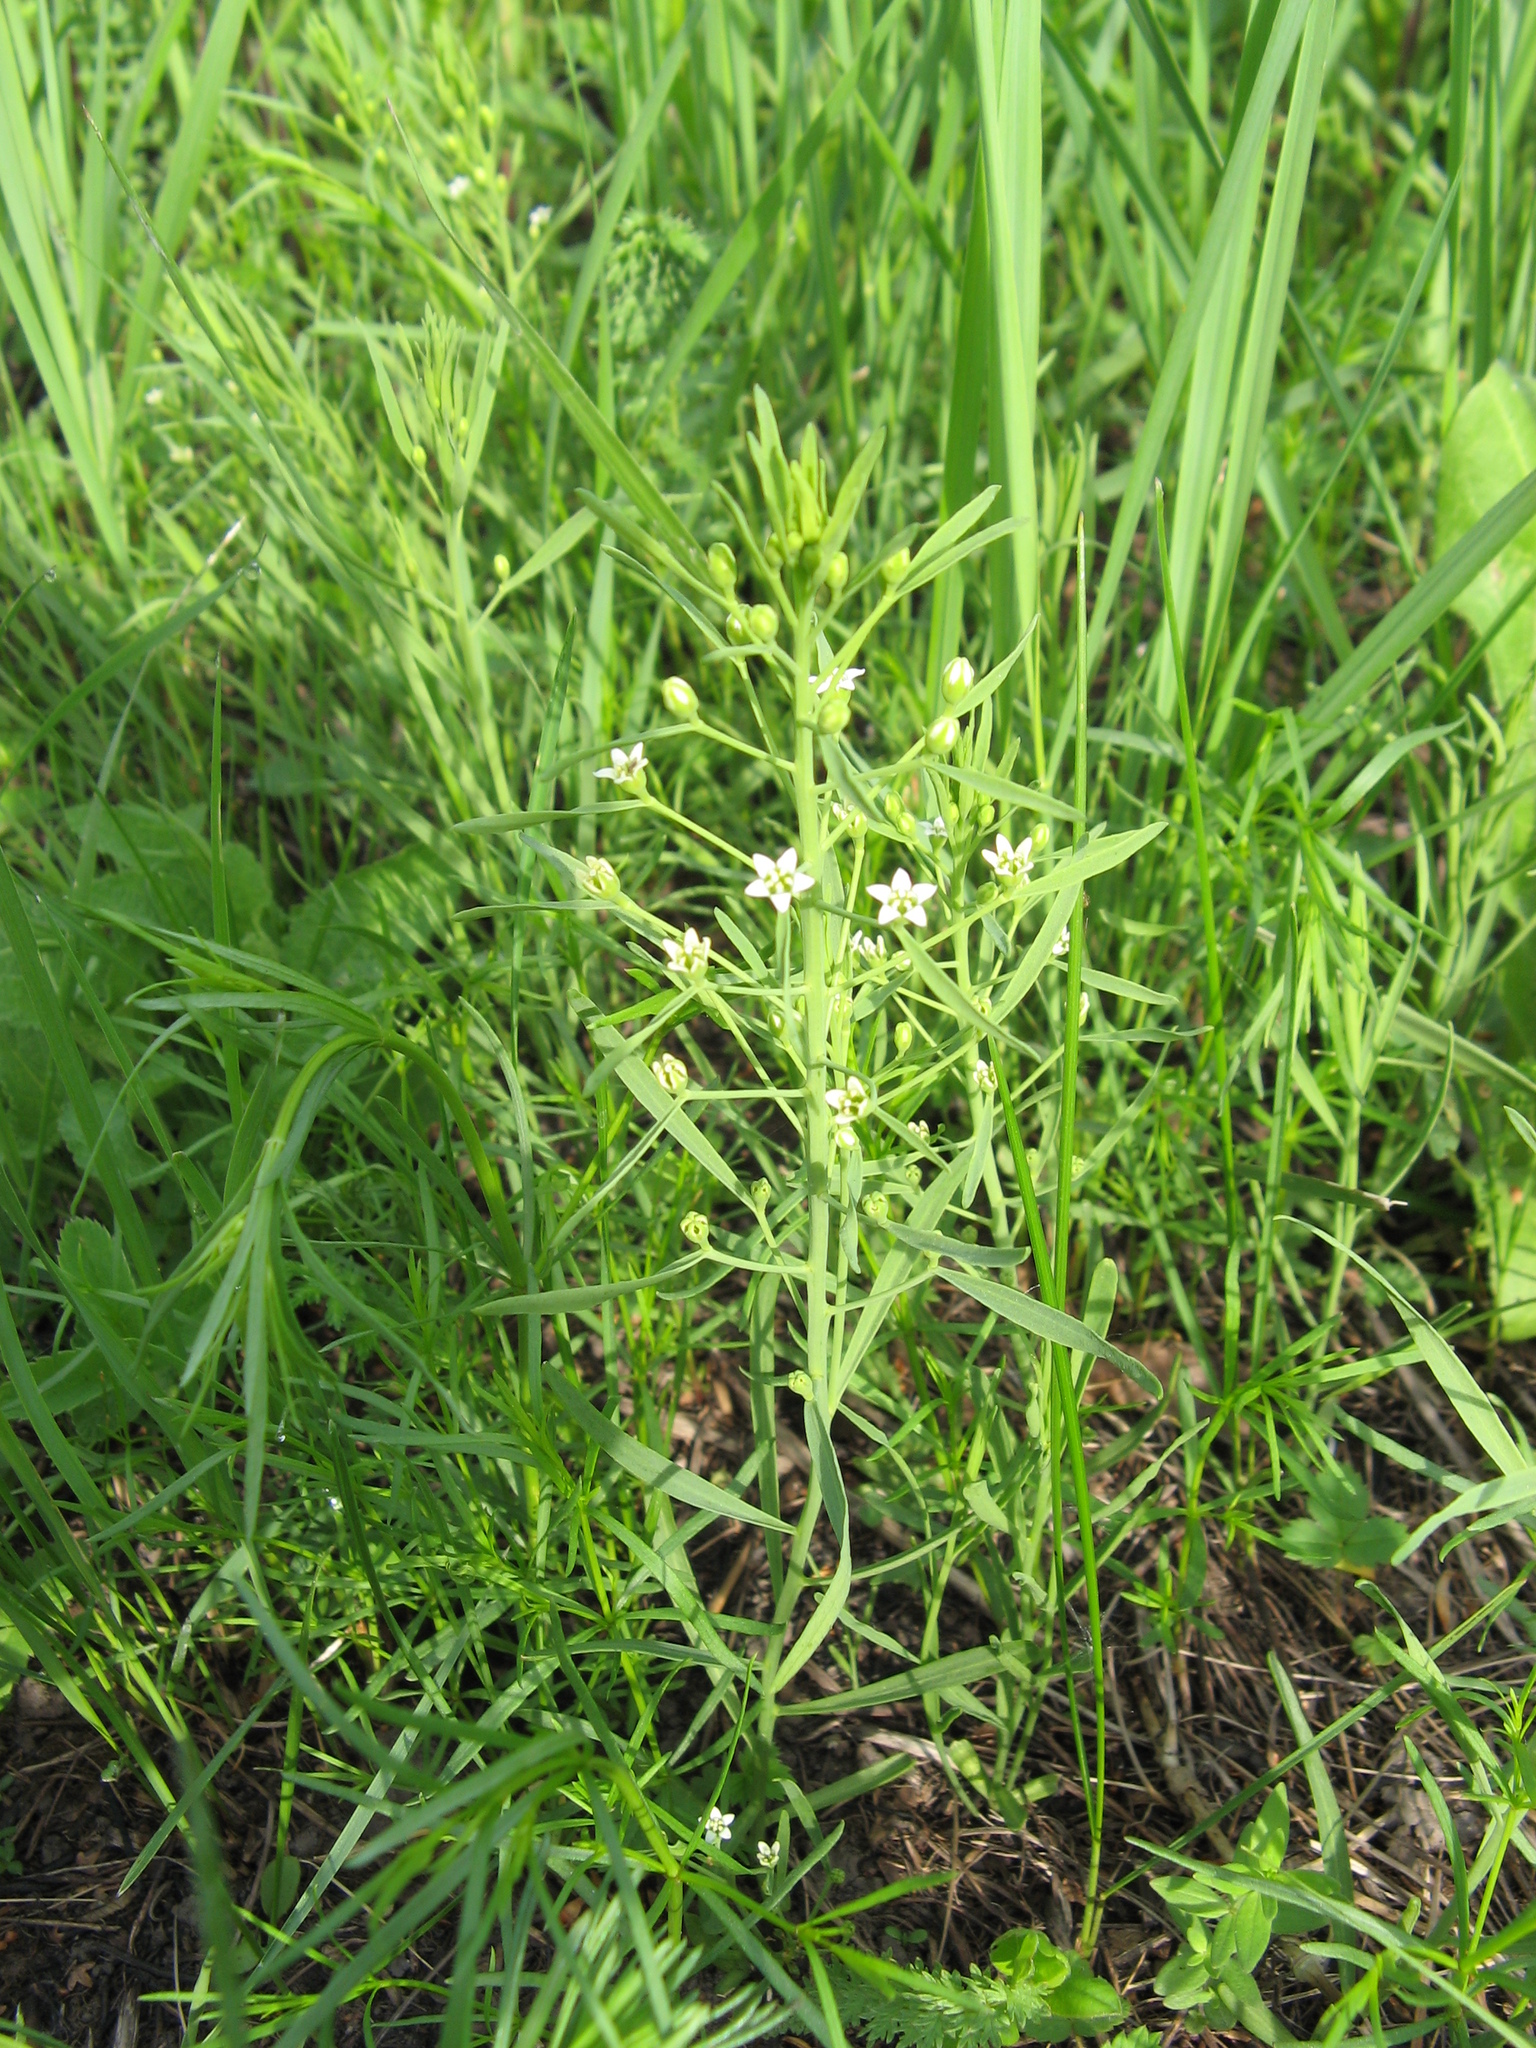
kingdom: Plantae
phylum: Tracheophyta
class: Magnoliopsida
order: Santalales
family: Thesiaceae
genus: Thesium
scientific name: Thesium ebracteatum
